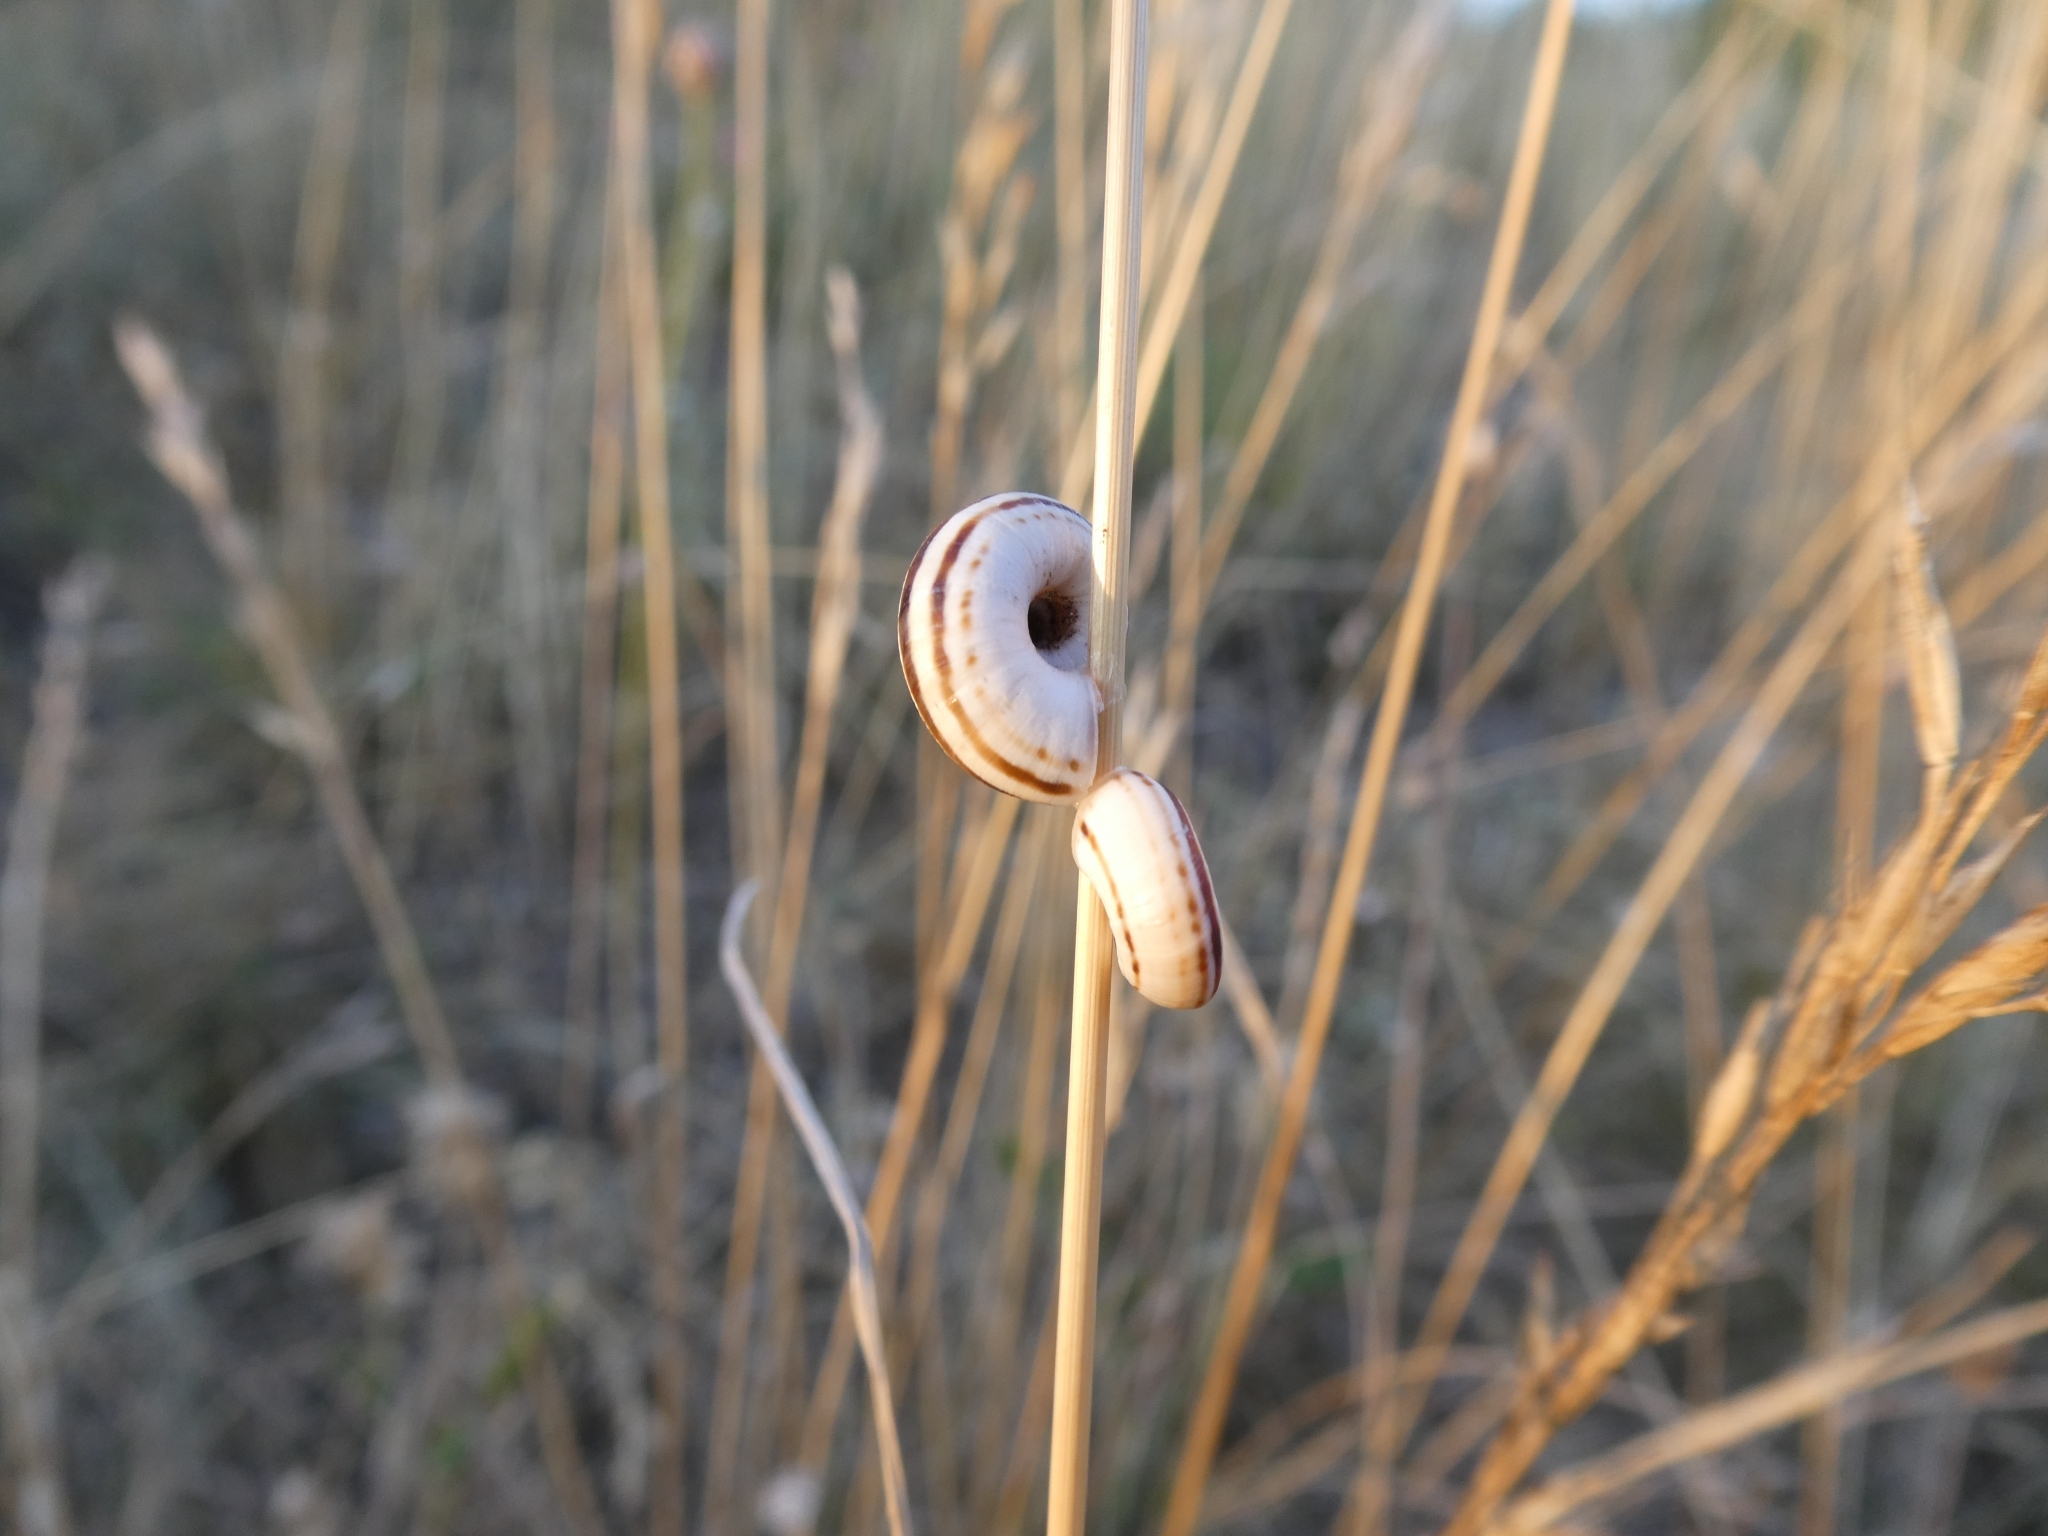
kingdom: Animalia
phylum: Mollusca
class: Gastropoda
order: Stylommatophora
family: Geomitridae
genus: Xerolenta
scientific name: Xerolenta obvia
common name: White heath snail
